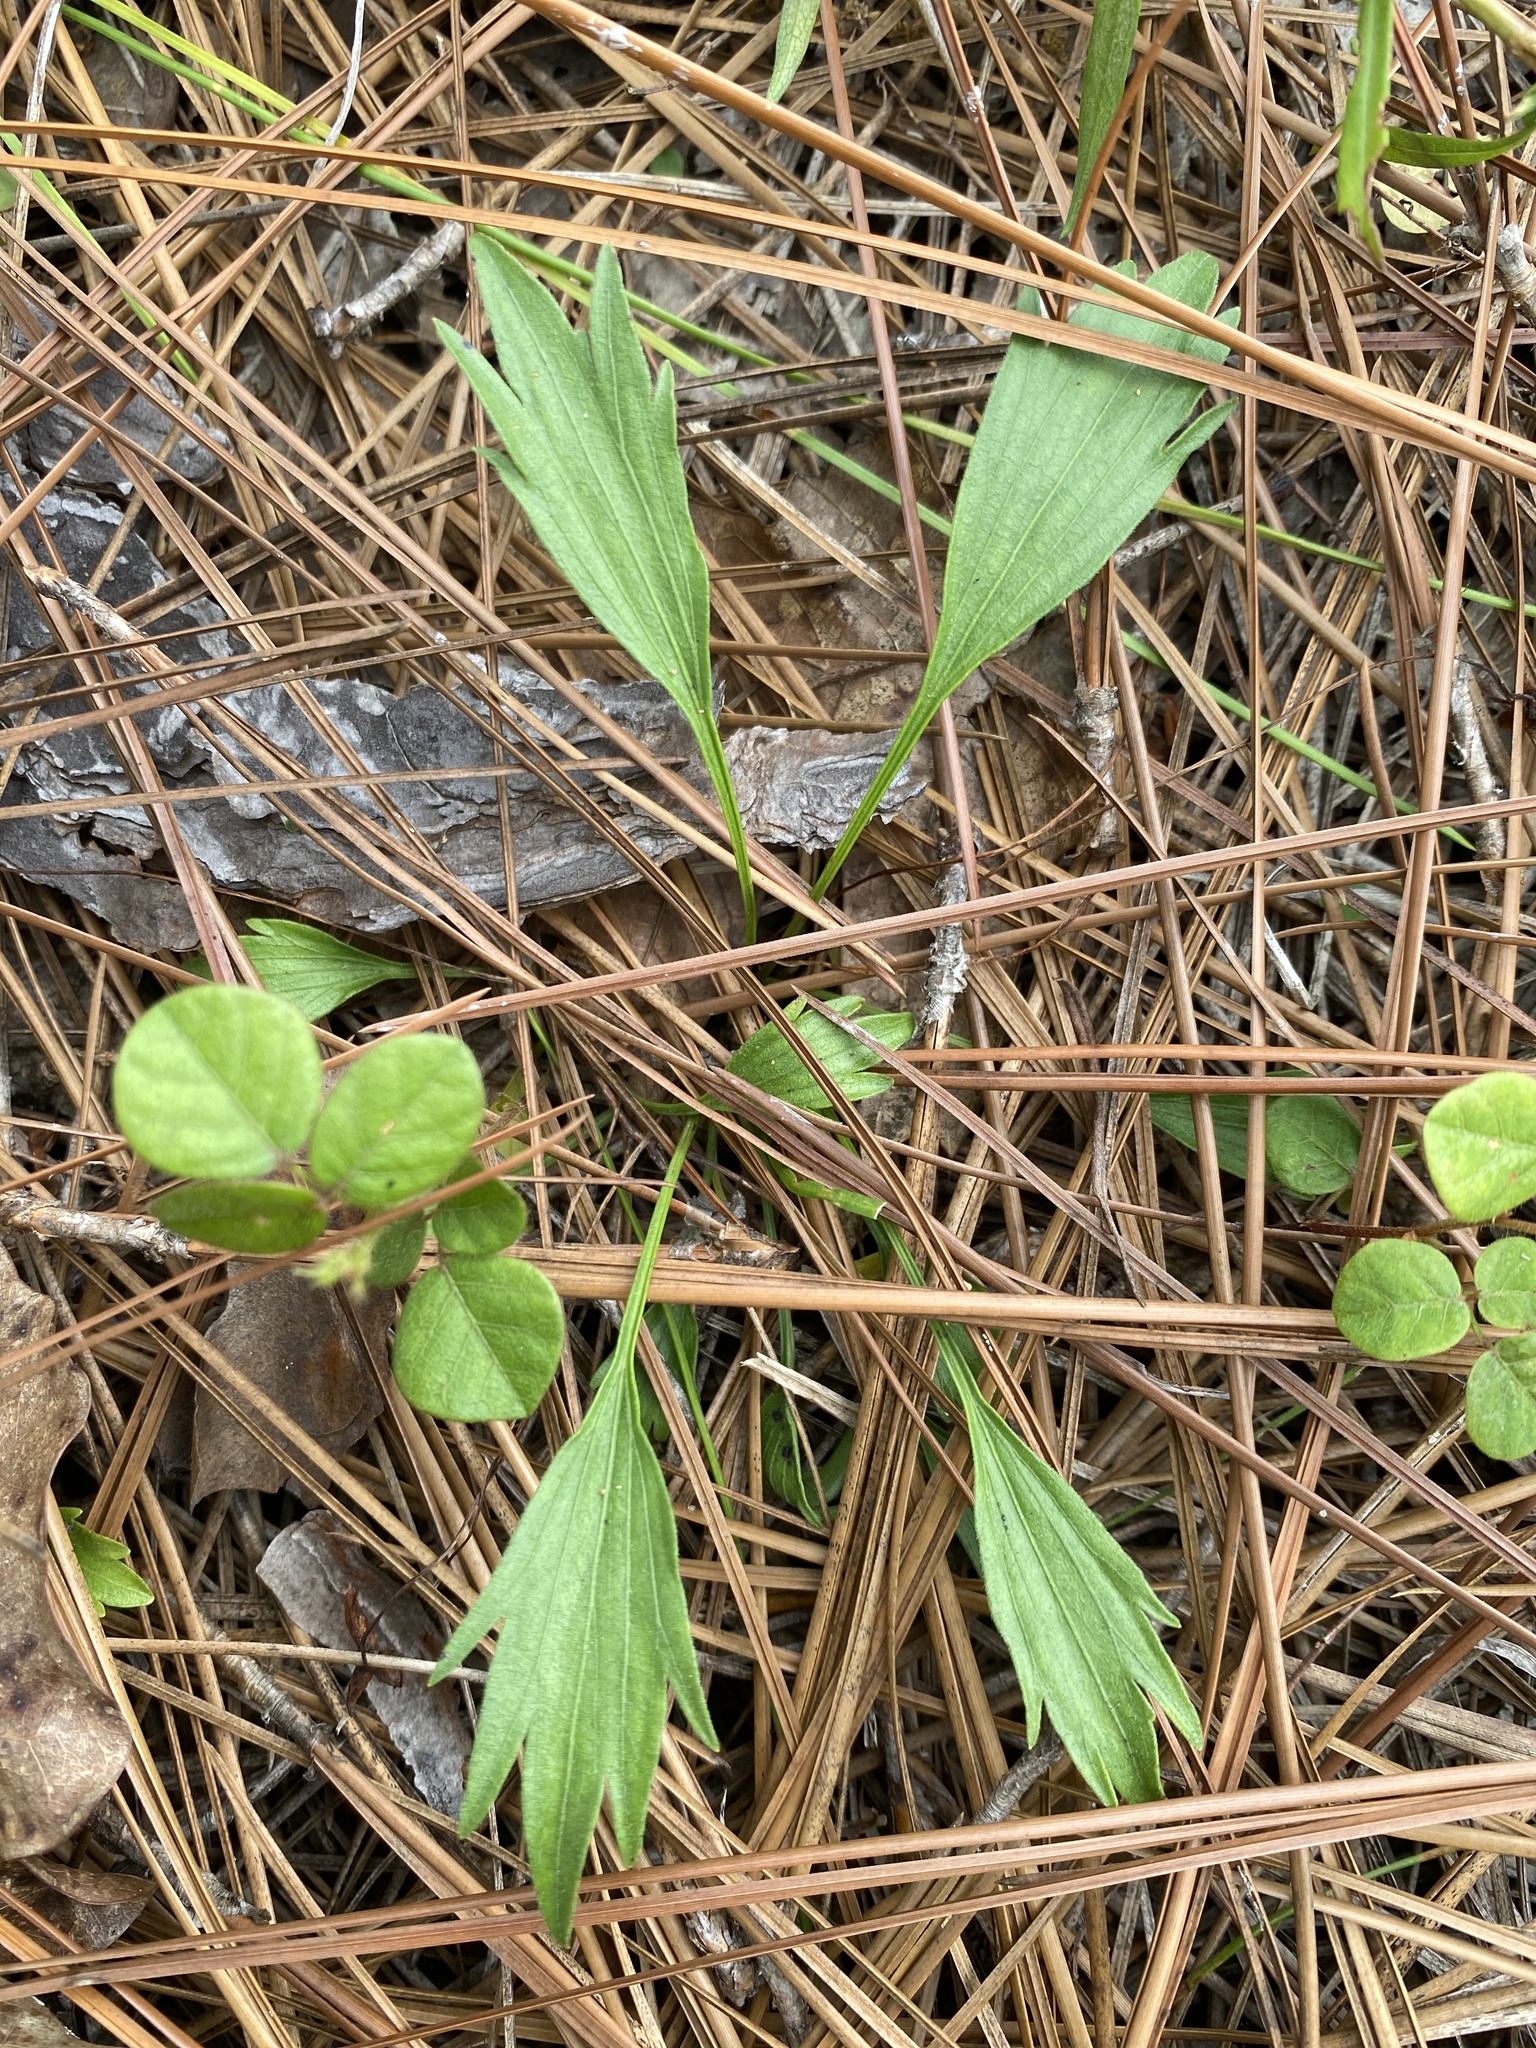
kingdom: Plantae
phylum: Tracheophyta
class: Magnoliopsida
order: Malpighiales
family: Violaceae
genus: Viola
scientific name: Viola pedata
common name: Pansy violet
